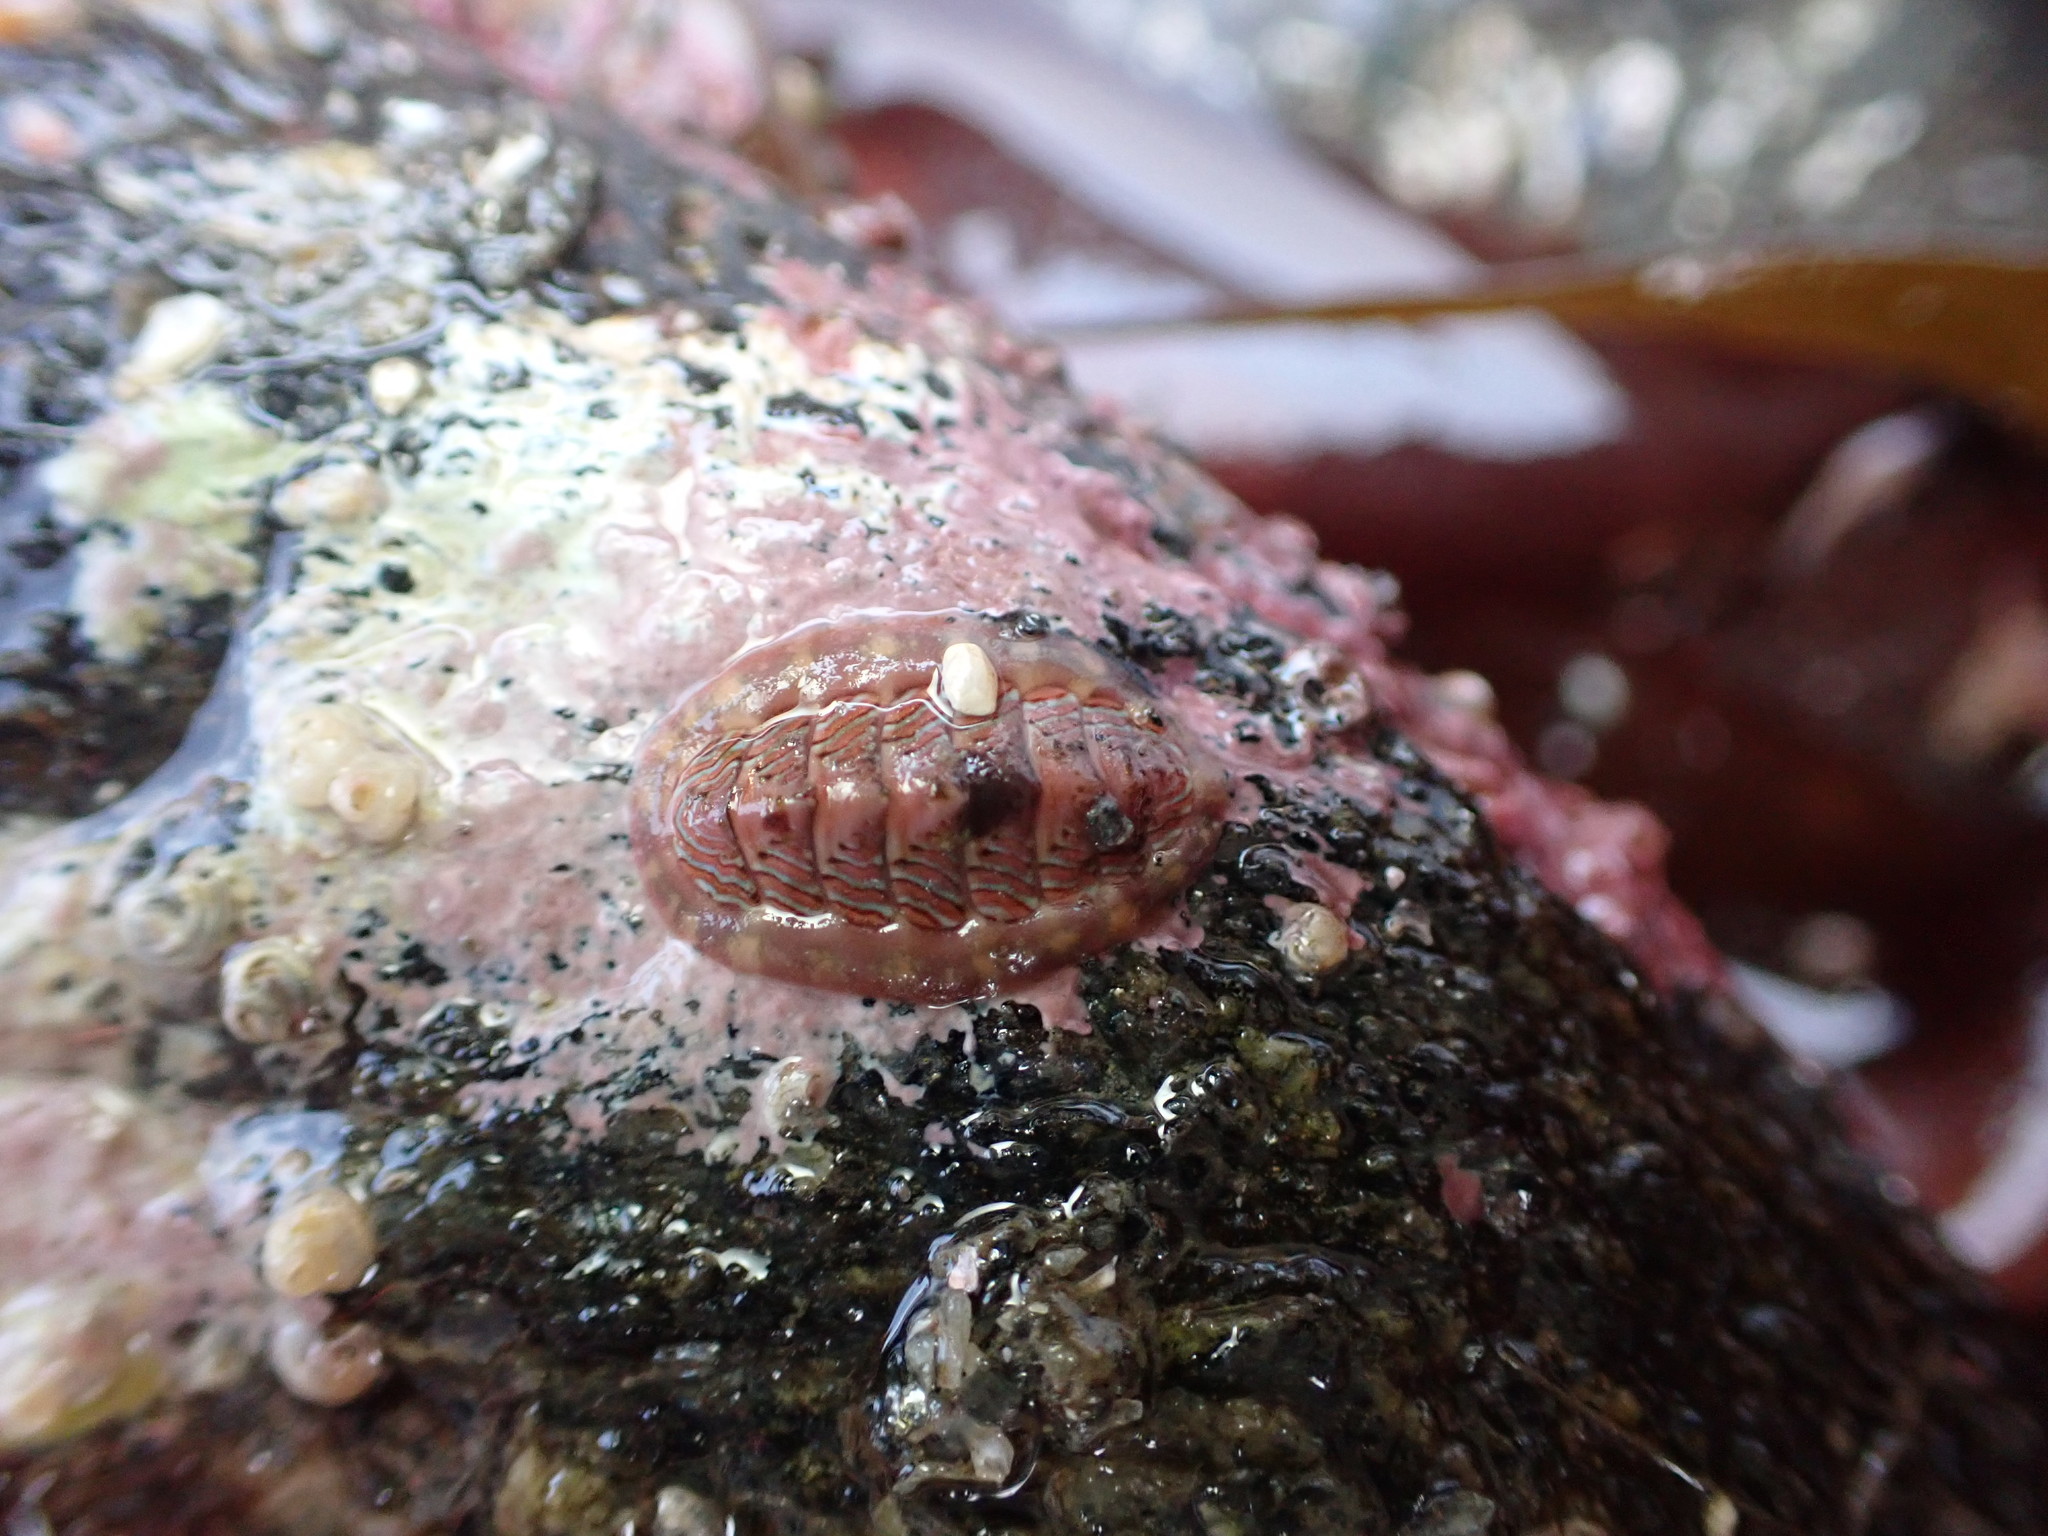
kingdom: Animalia
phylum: Mollusca
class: Polyplacophora
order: Chitonida
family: Tonicellidae
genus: Tonicella
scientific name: Tonicella lineata
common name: Lined chiton
